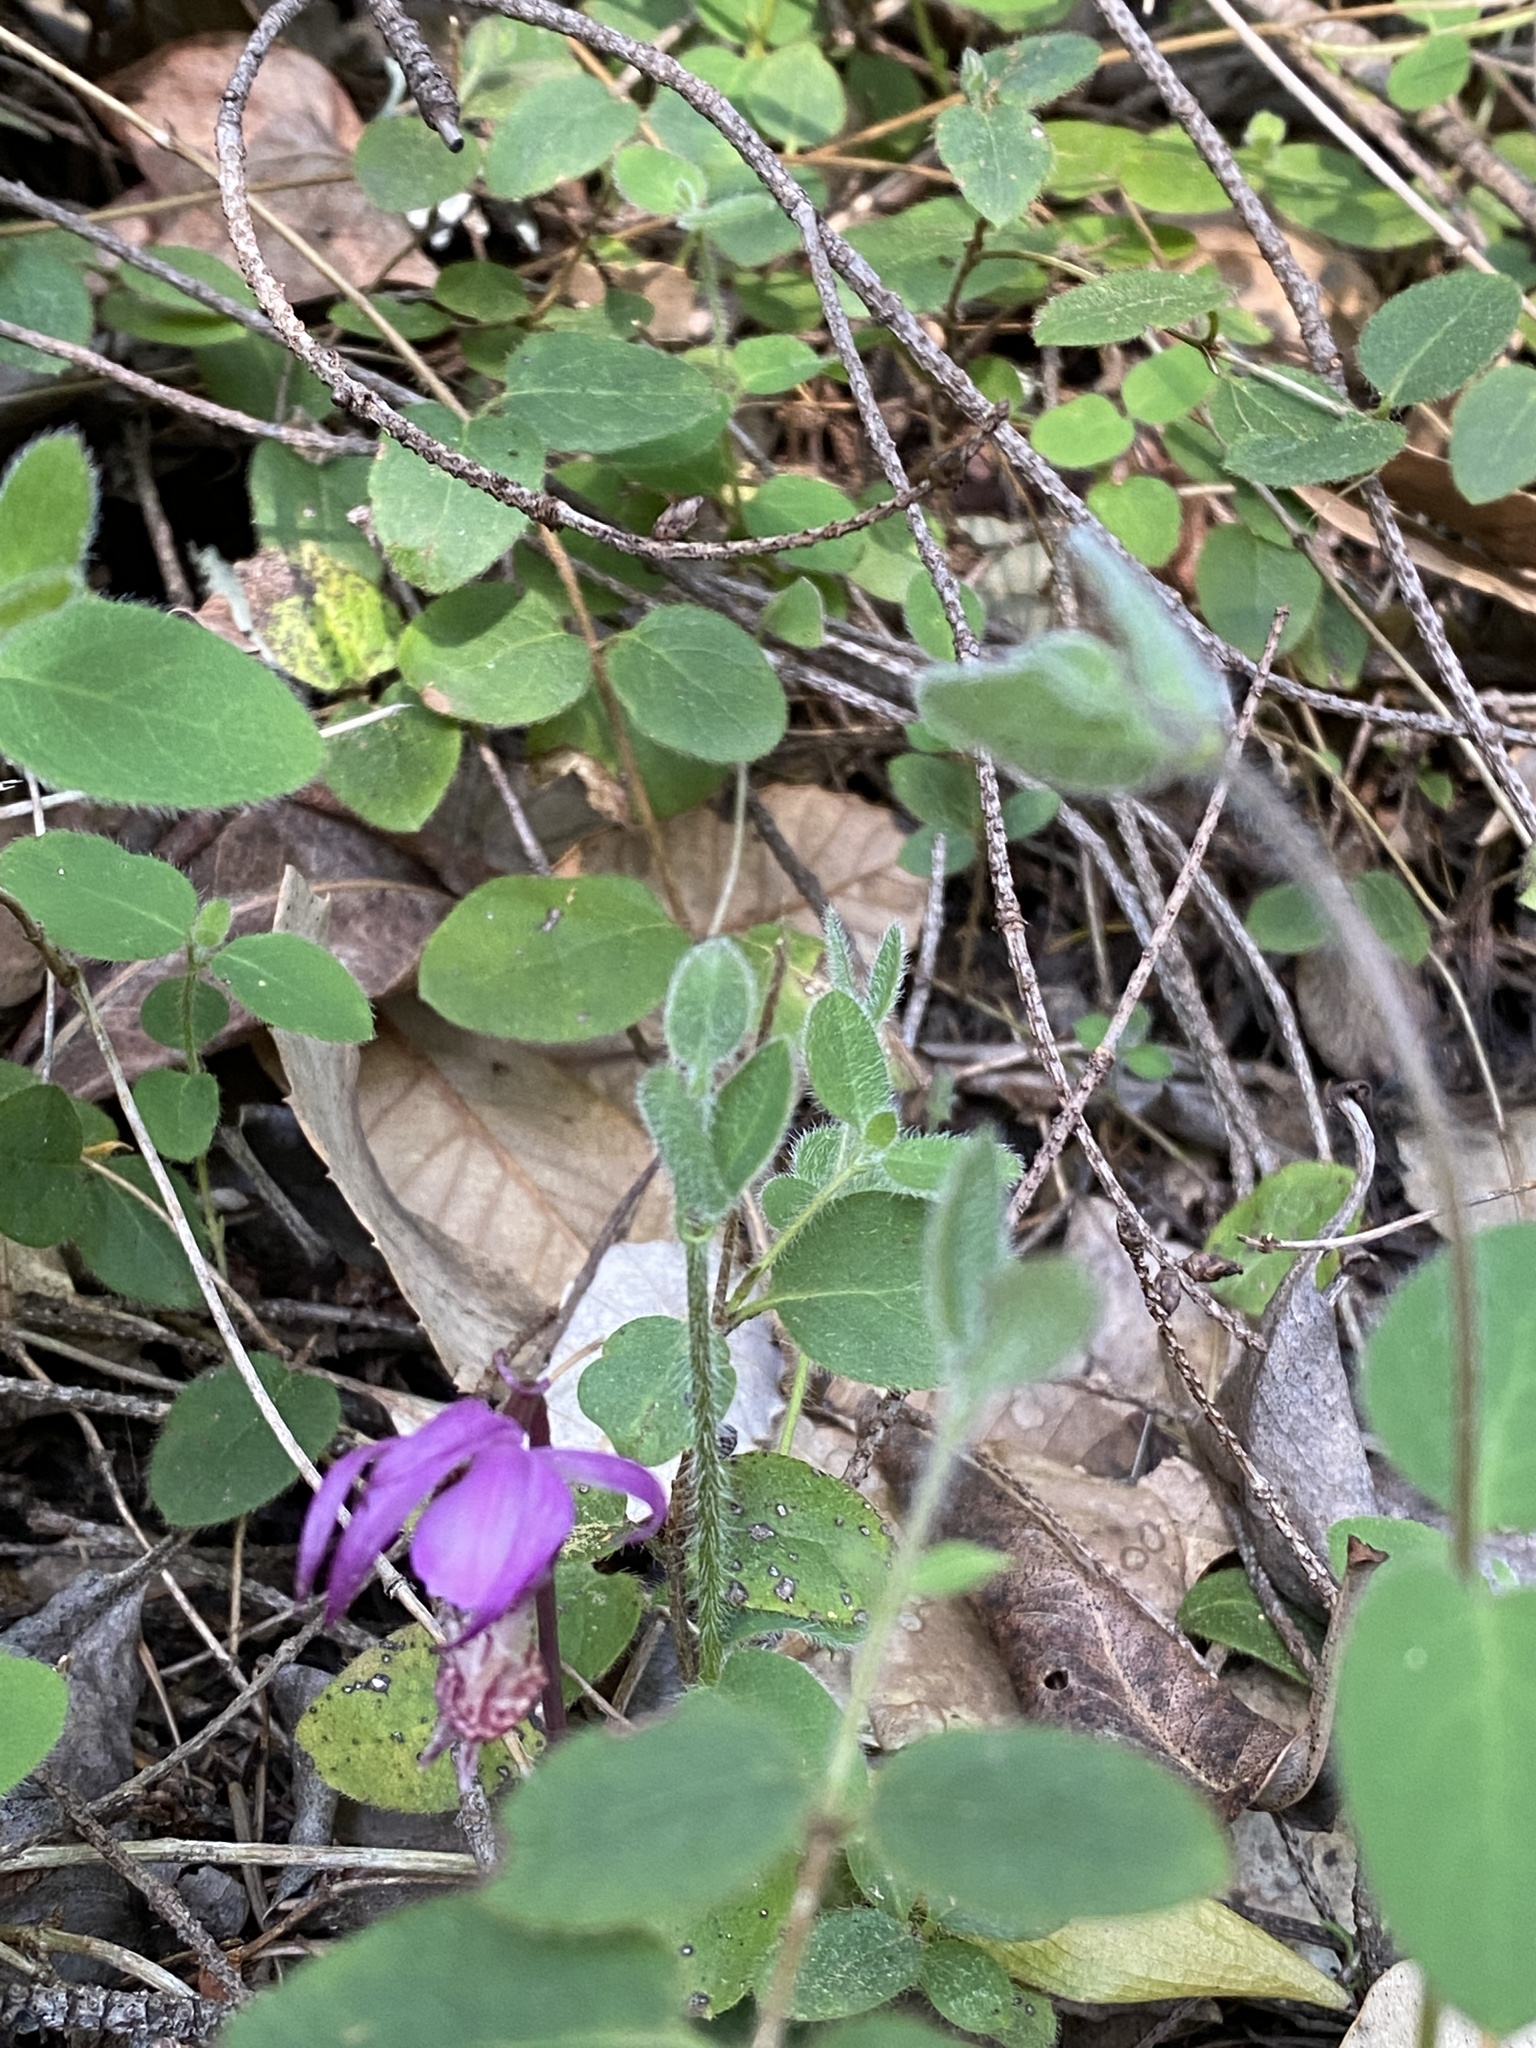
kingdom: Plantae
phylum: Tracheophyta
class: Liliopsida
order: Asparagales
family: Orchidaceae
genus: Calypso
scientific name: Calypso bulbosa
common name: Calypso
